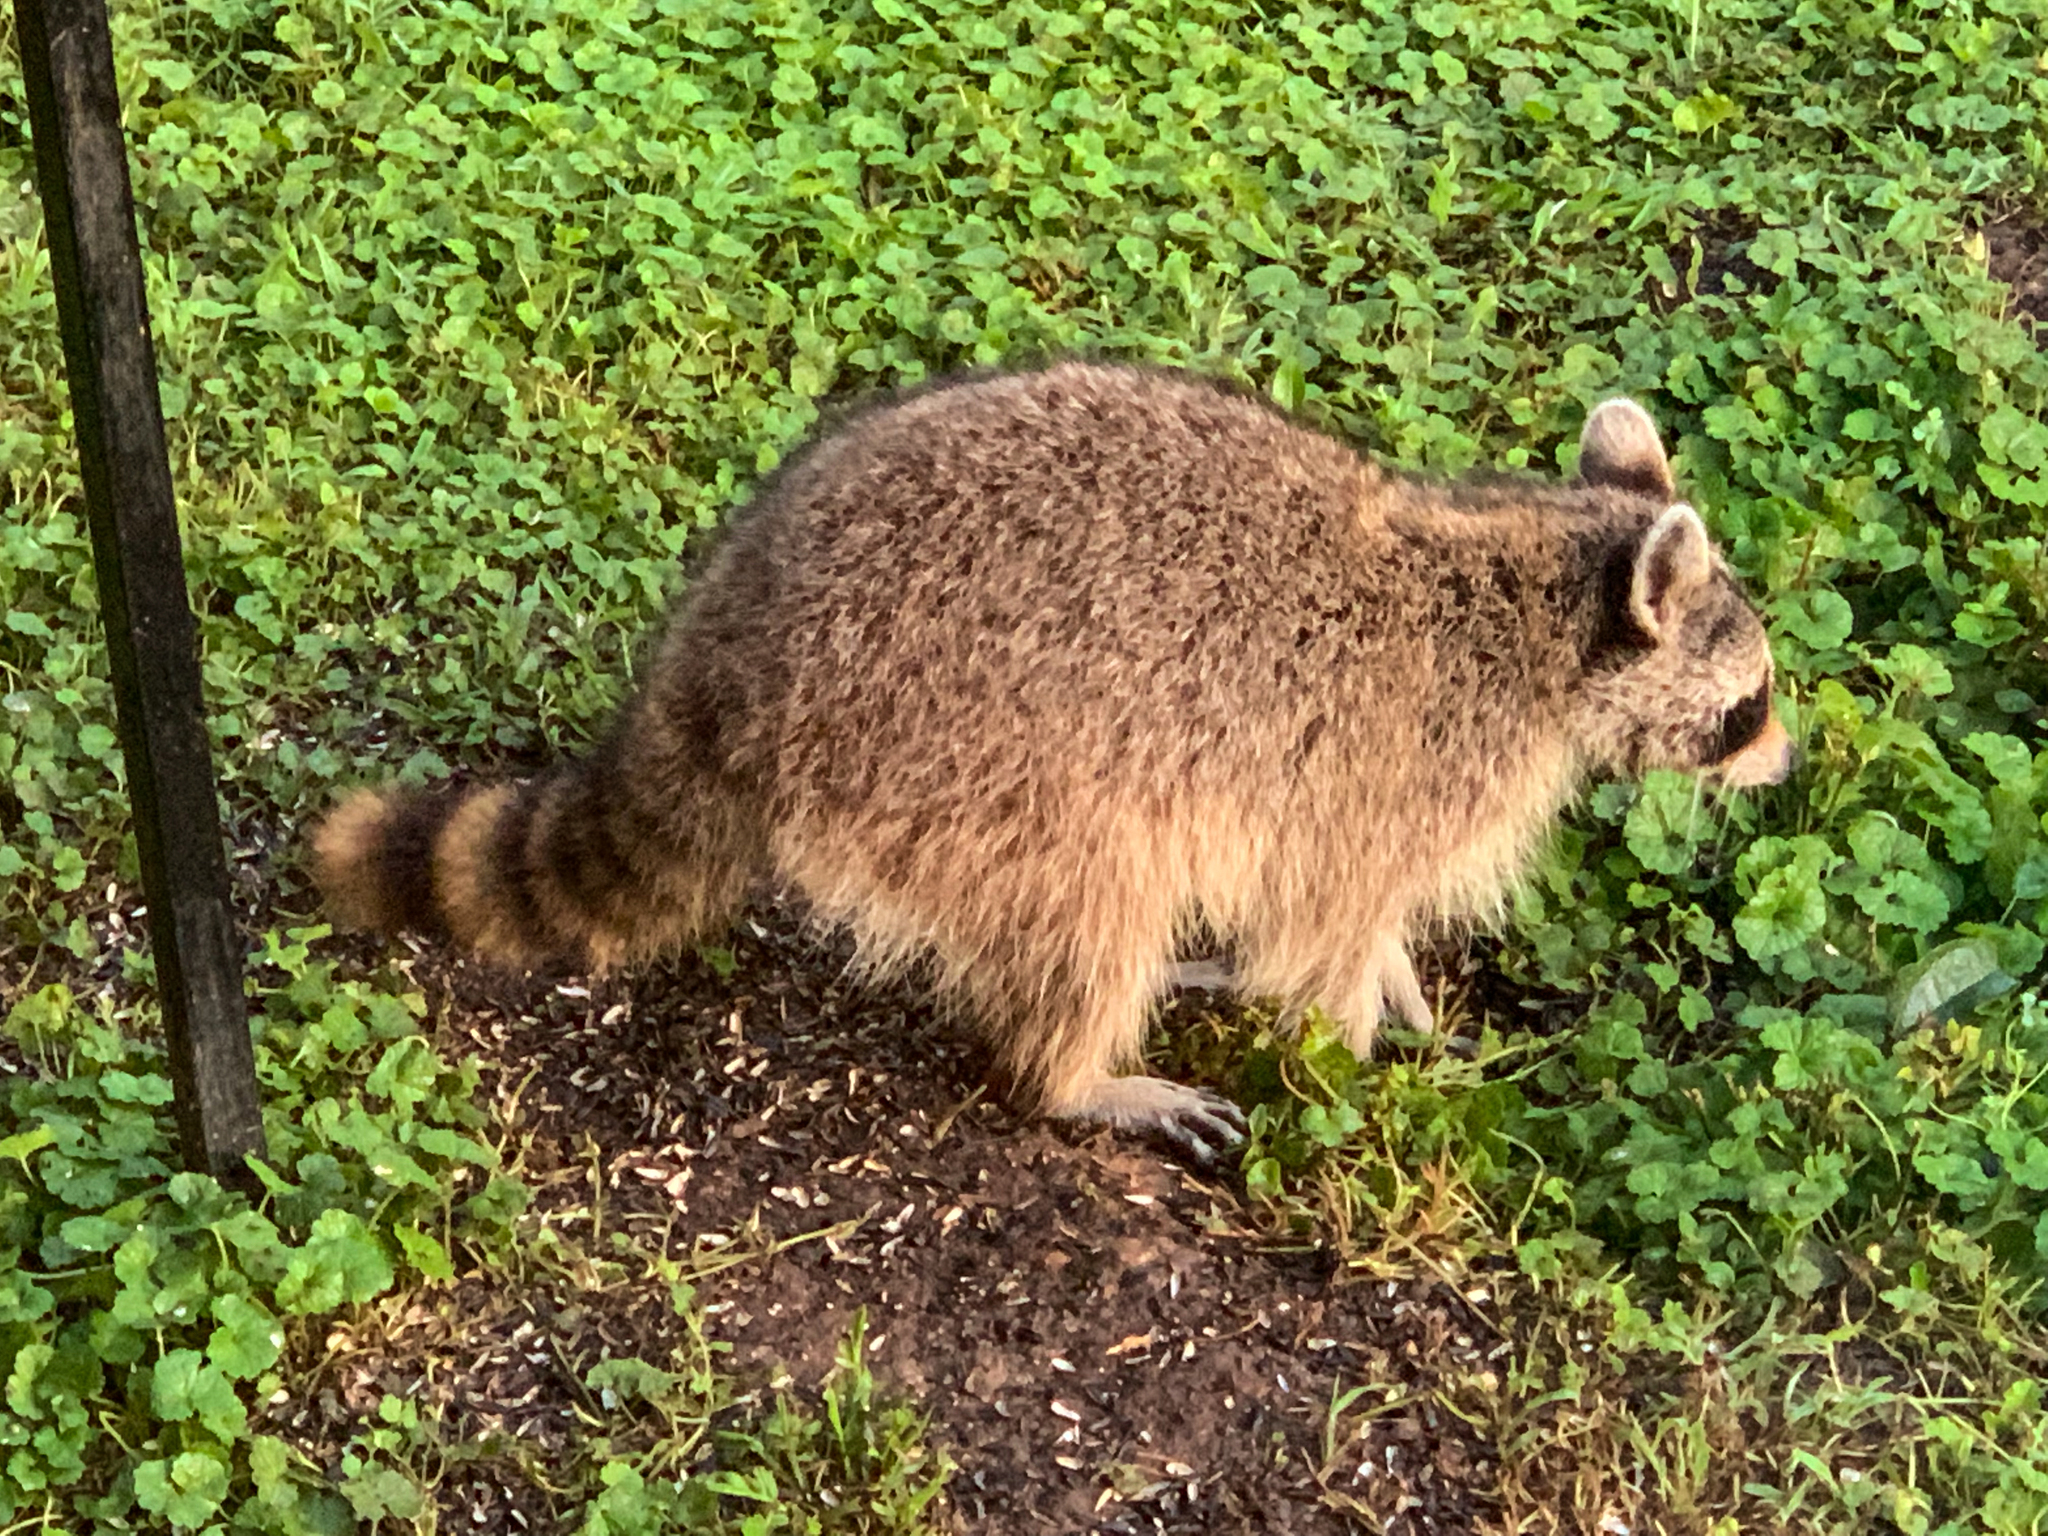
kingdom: Animalia
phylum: Chordata
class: Mammalia
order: Carnivora
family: Procyonidae
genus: Procyon
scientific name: Procyon lotor
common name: Raccoon
